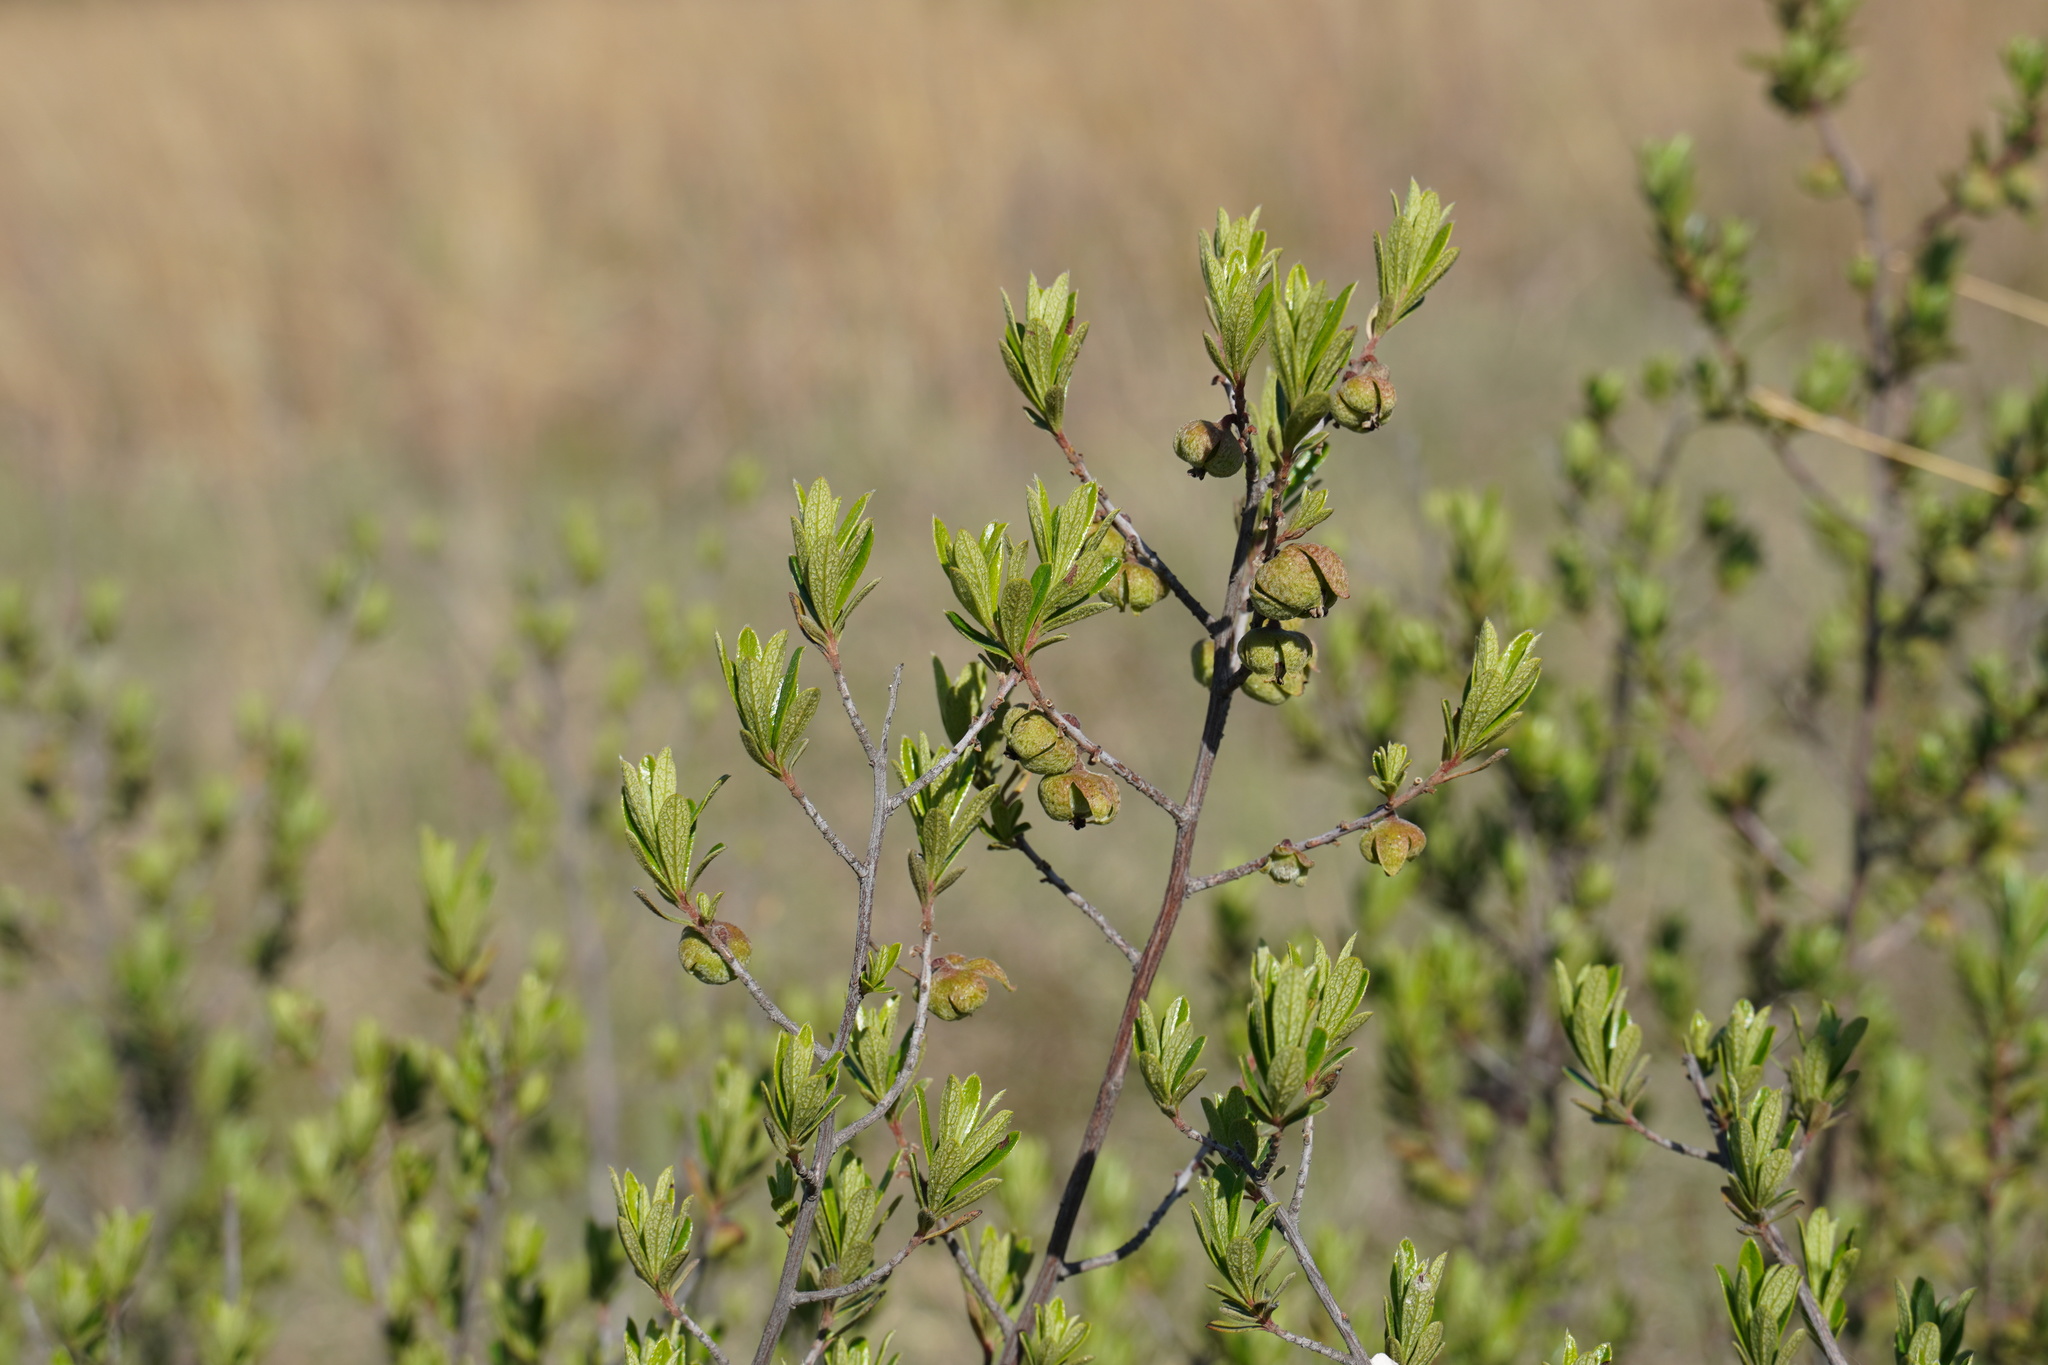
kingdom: Plantae
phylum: Tracheophyta
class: Magnoliopsida
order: Ericales
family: Ebenaceae
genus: Diospyros
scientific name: Diospyros lycioides
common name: Red star apple
